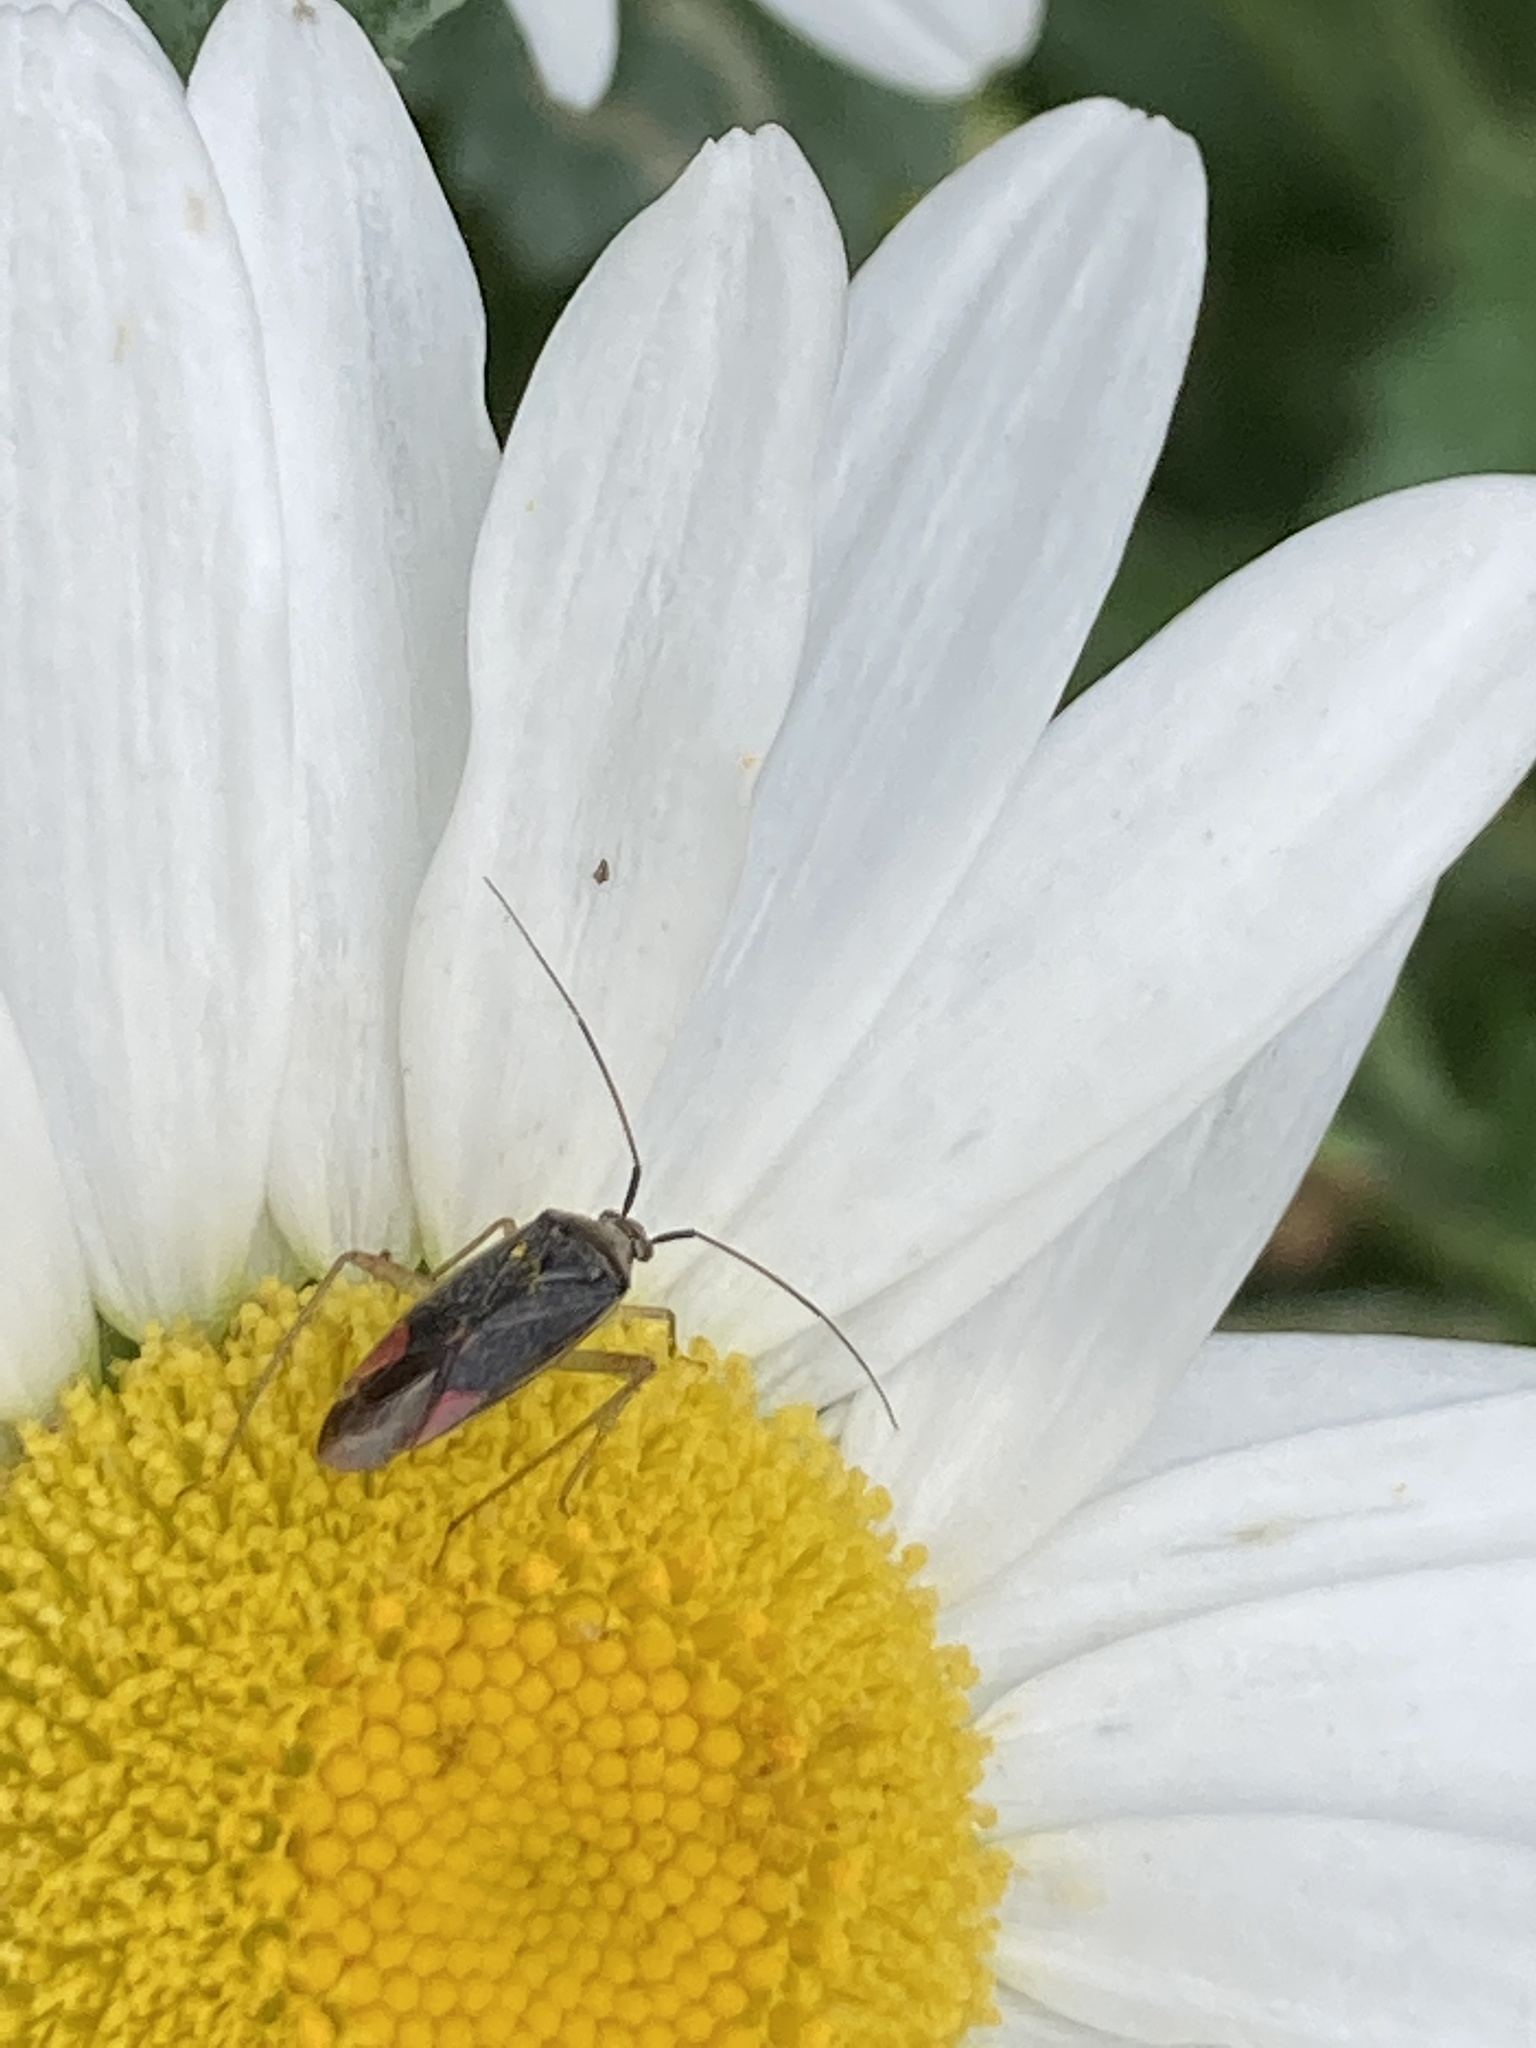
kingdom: Animalia
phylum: Arthropoda
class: Insecta
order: Hemiptera
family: Miridae
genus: Closterotomus
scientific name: Closterotomus trivialis
